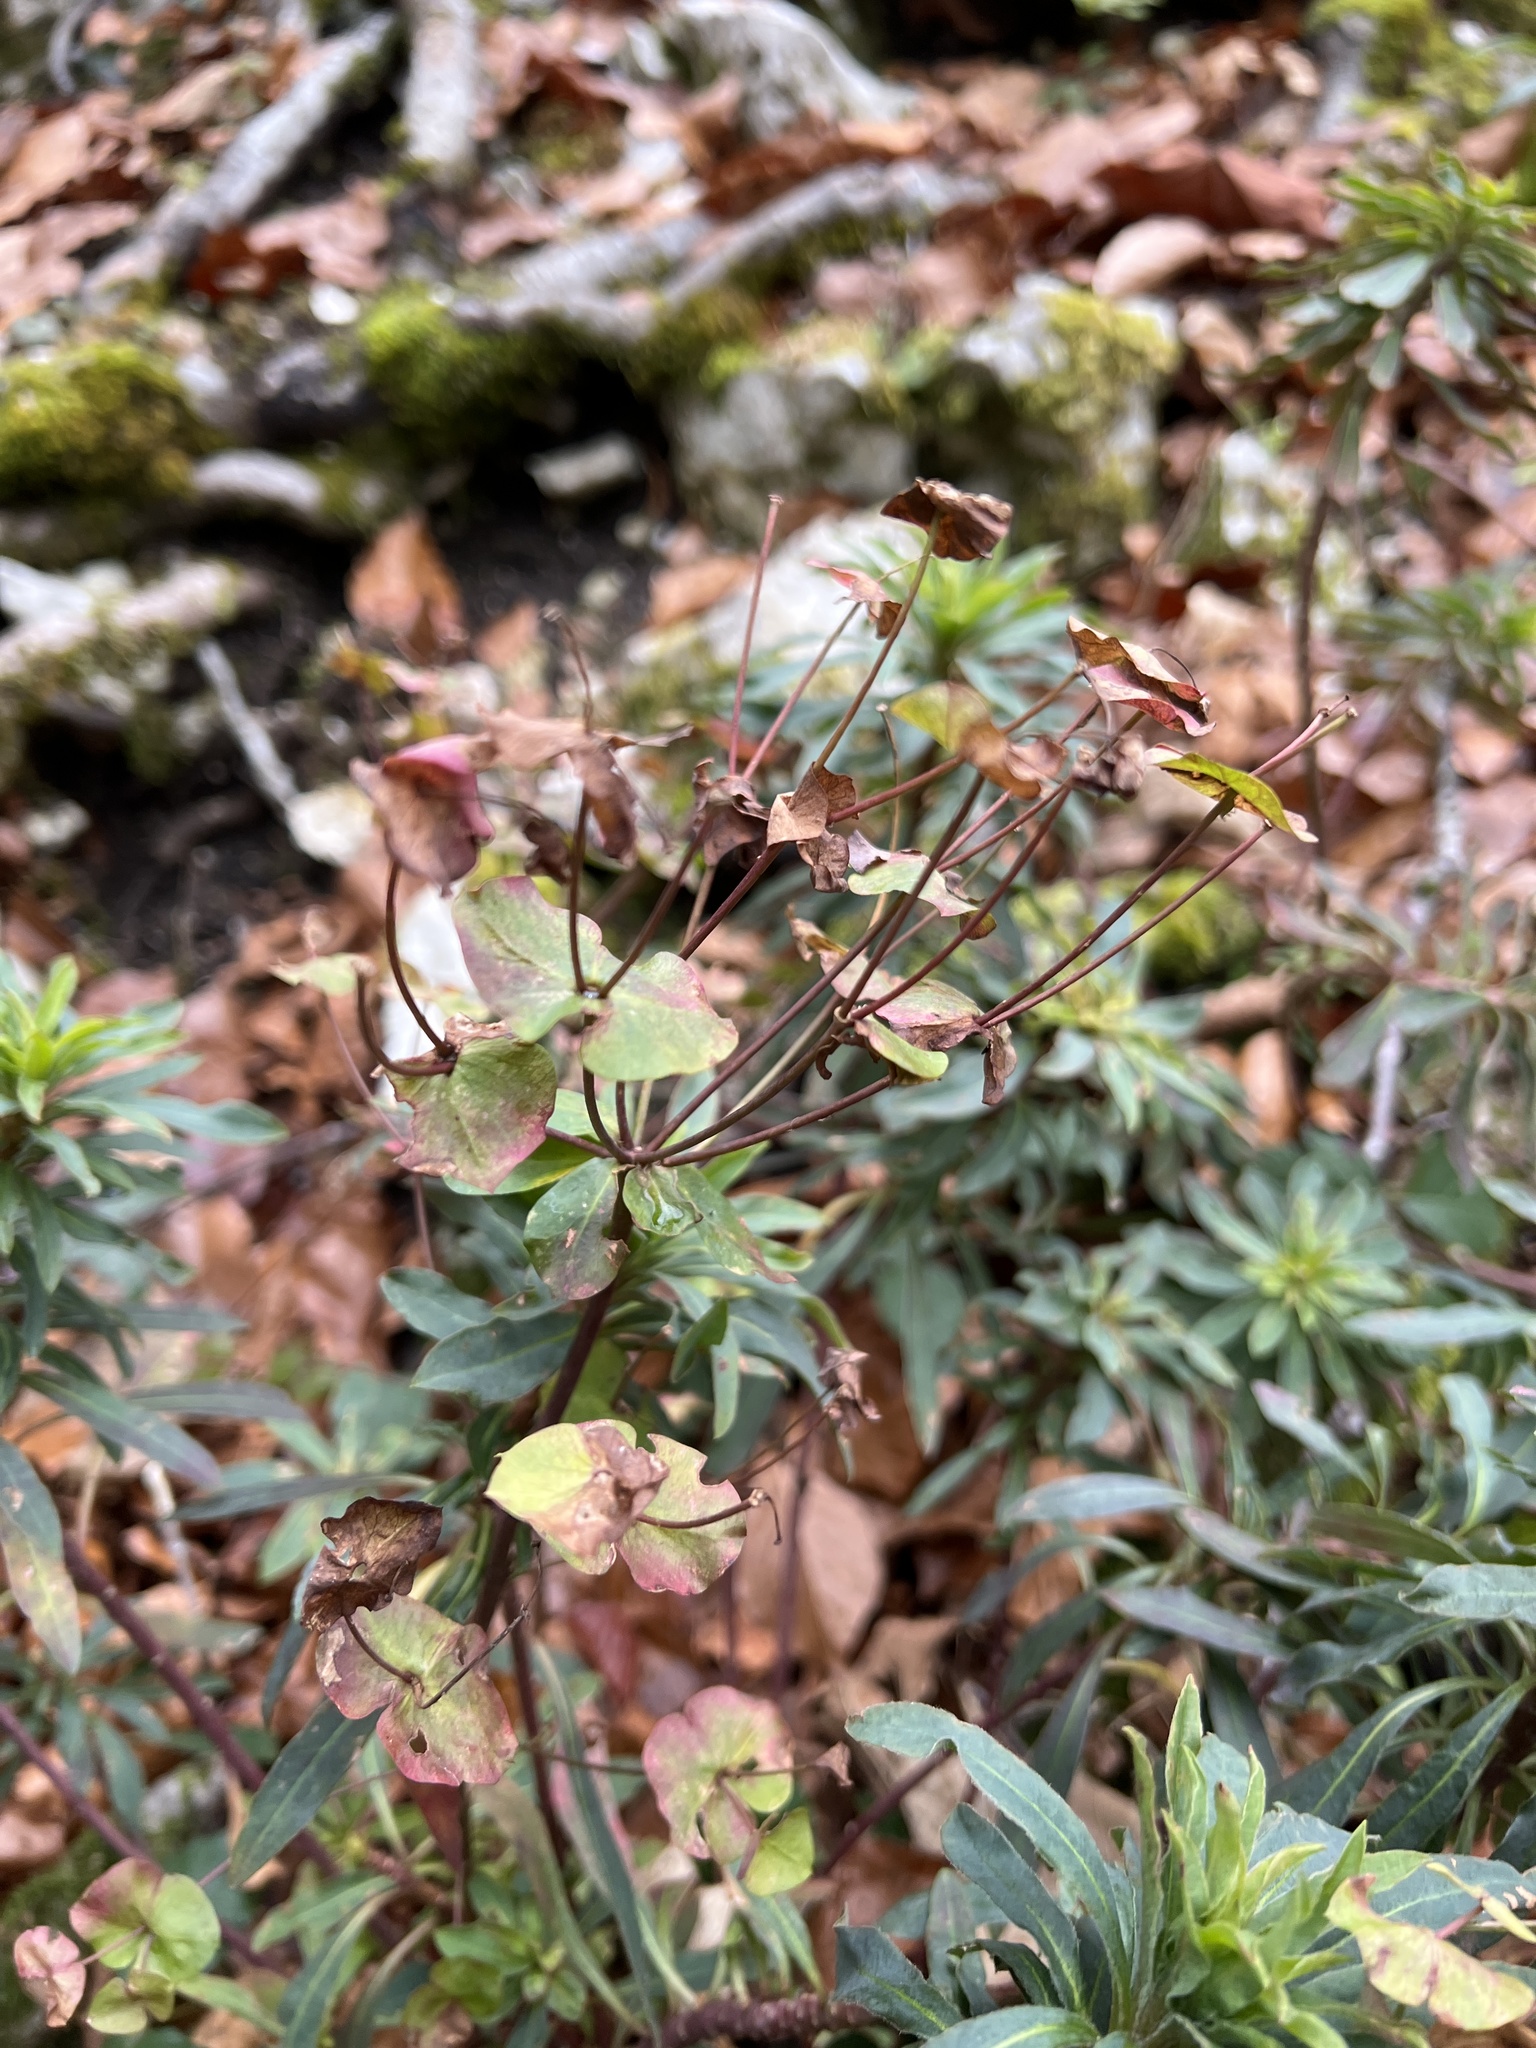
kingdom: Plantae
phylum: Tracheophyta
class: Magnoliopsida
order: Malpighiales
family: Euphorbiaceae
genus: Euphorbia
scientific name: Euphorbia amygdaloides
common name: Wood spurge
